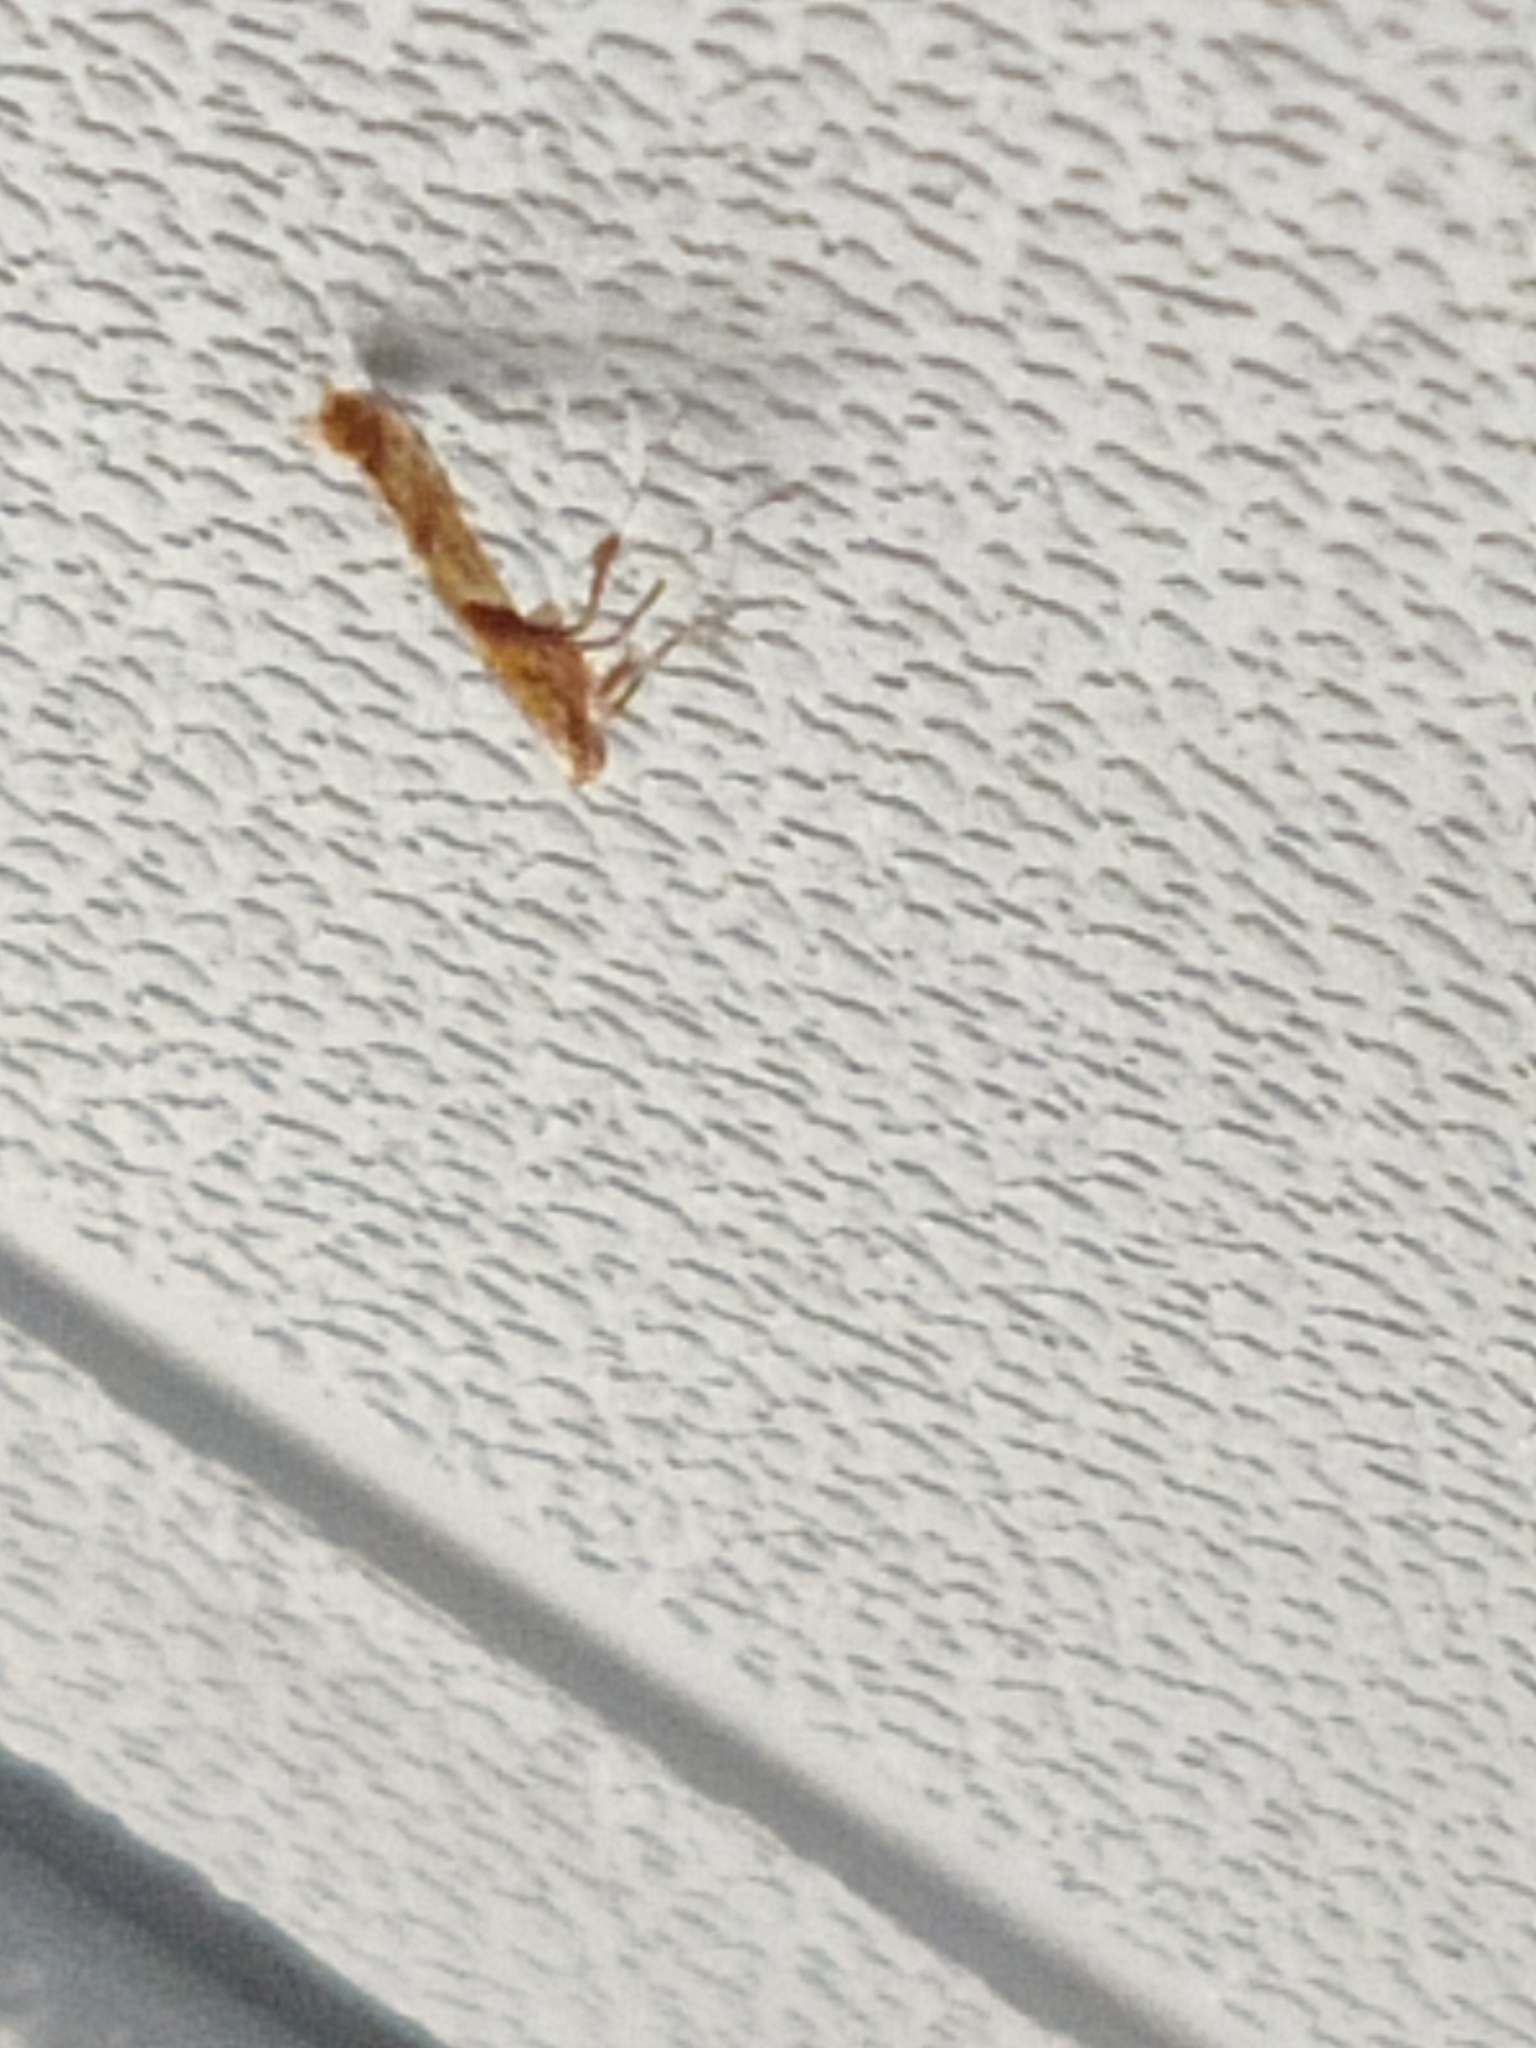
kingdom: Animalia
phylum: Arthropoda
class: Insecta
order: Lepidoptera
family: Gracillariidae
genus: Caloptilia
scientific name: Caloptilia hemidactylella
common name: Sycamore slender
